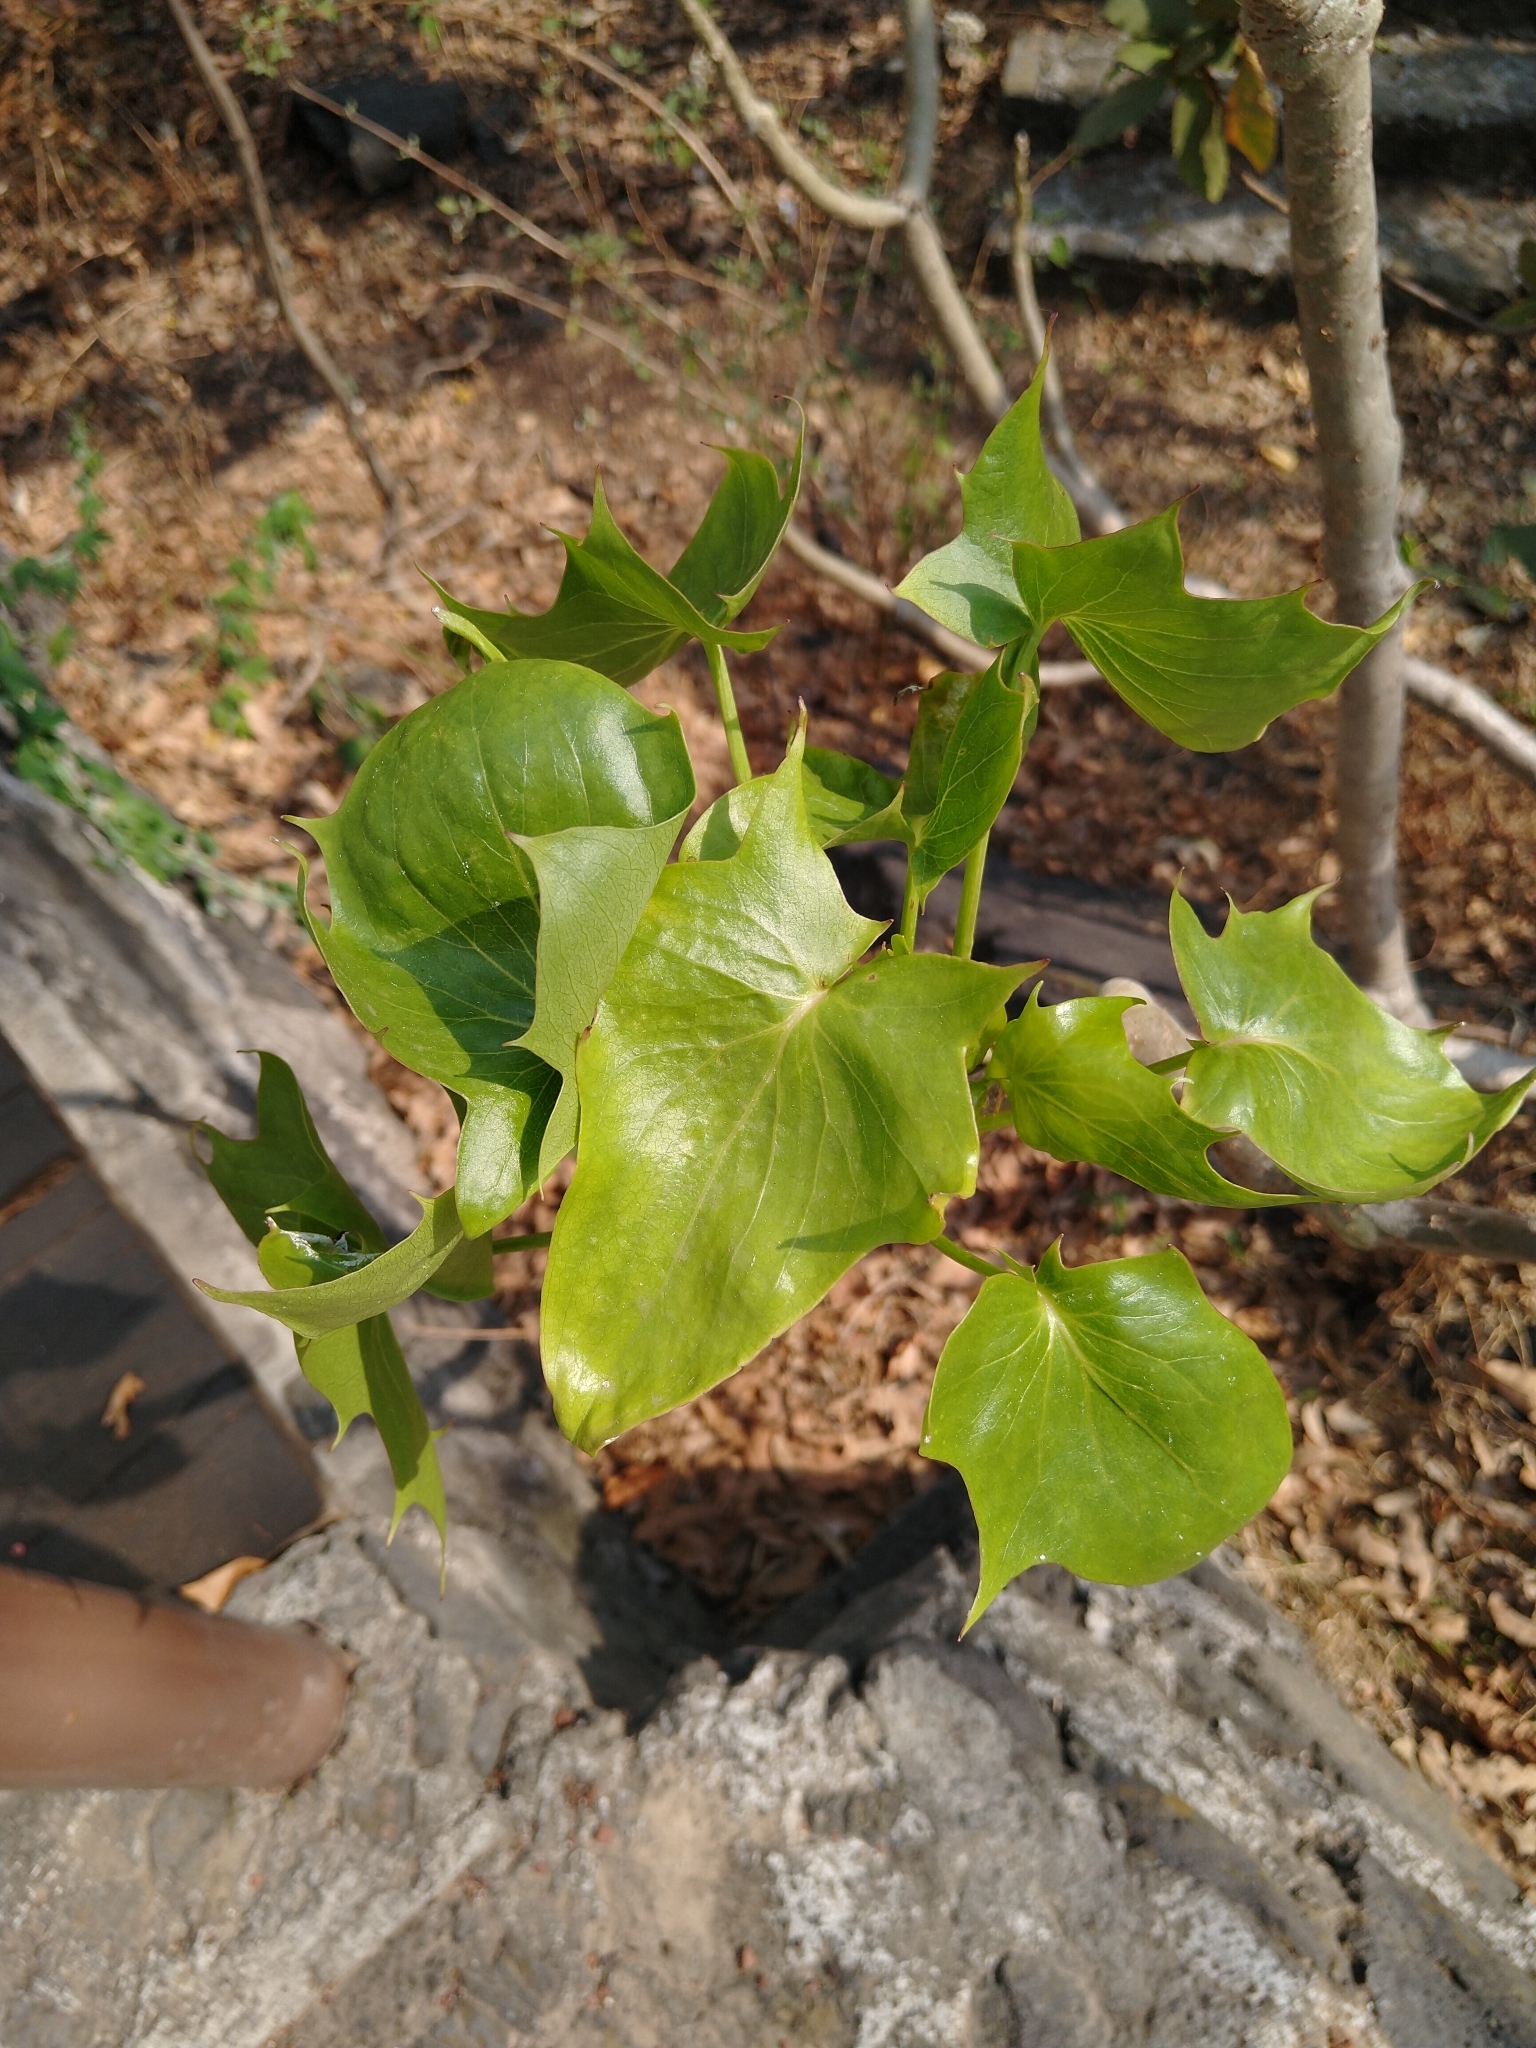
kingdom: Plantae
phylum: Tracheophyta
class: Magnoliopsida
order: Asterales
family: Asteraceae
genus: Pittocaulon
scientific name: Pittocaulon praecox
